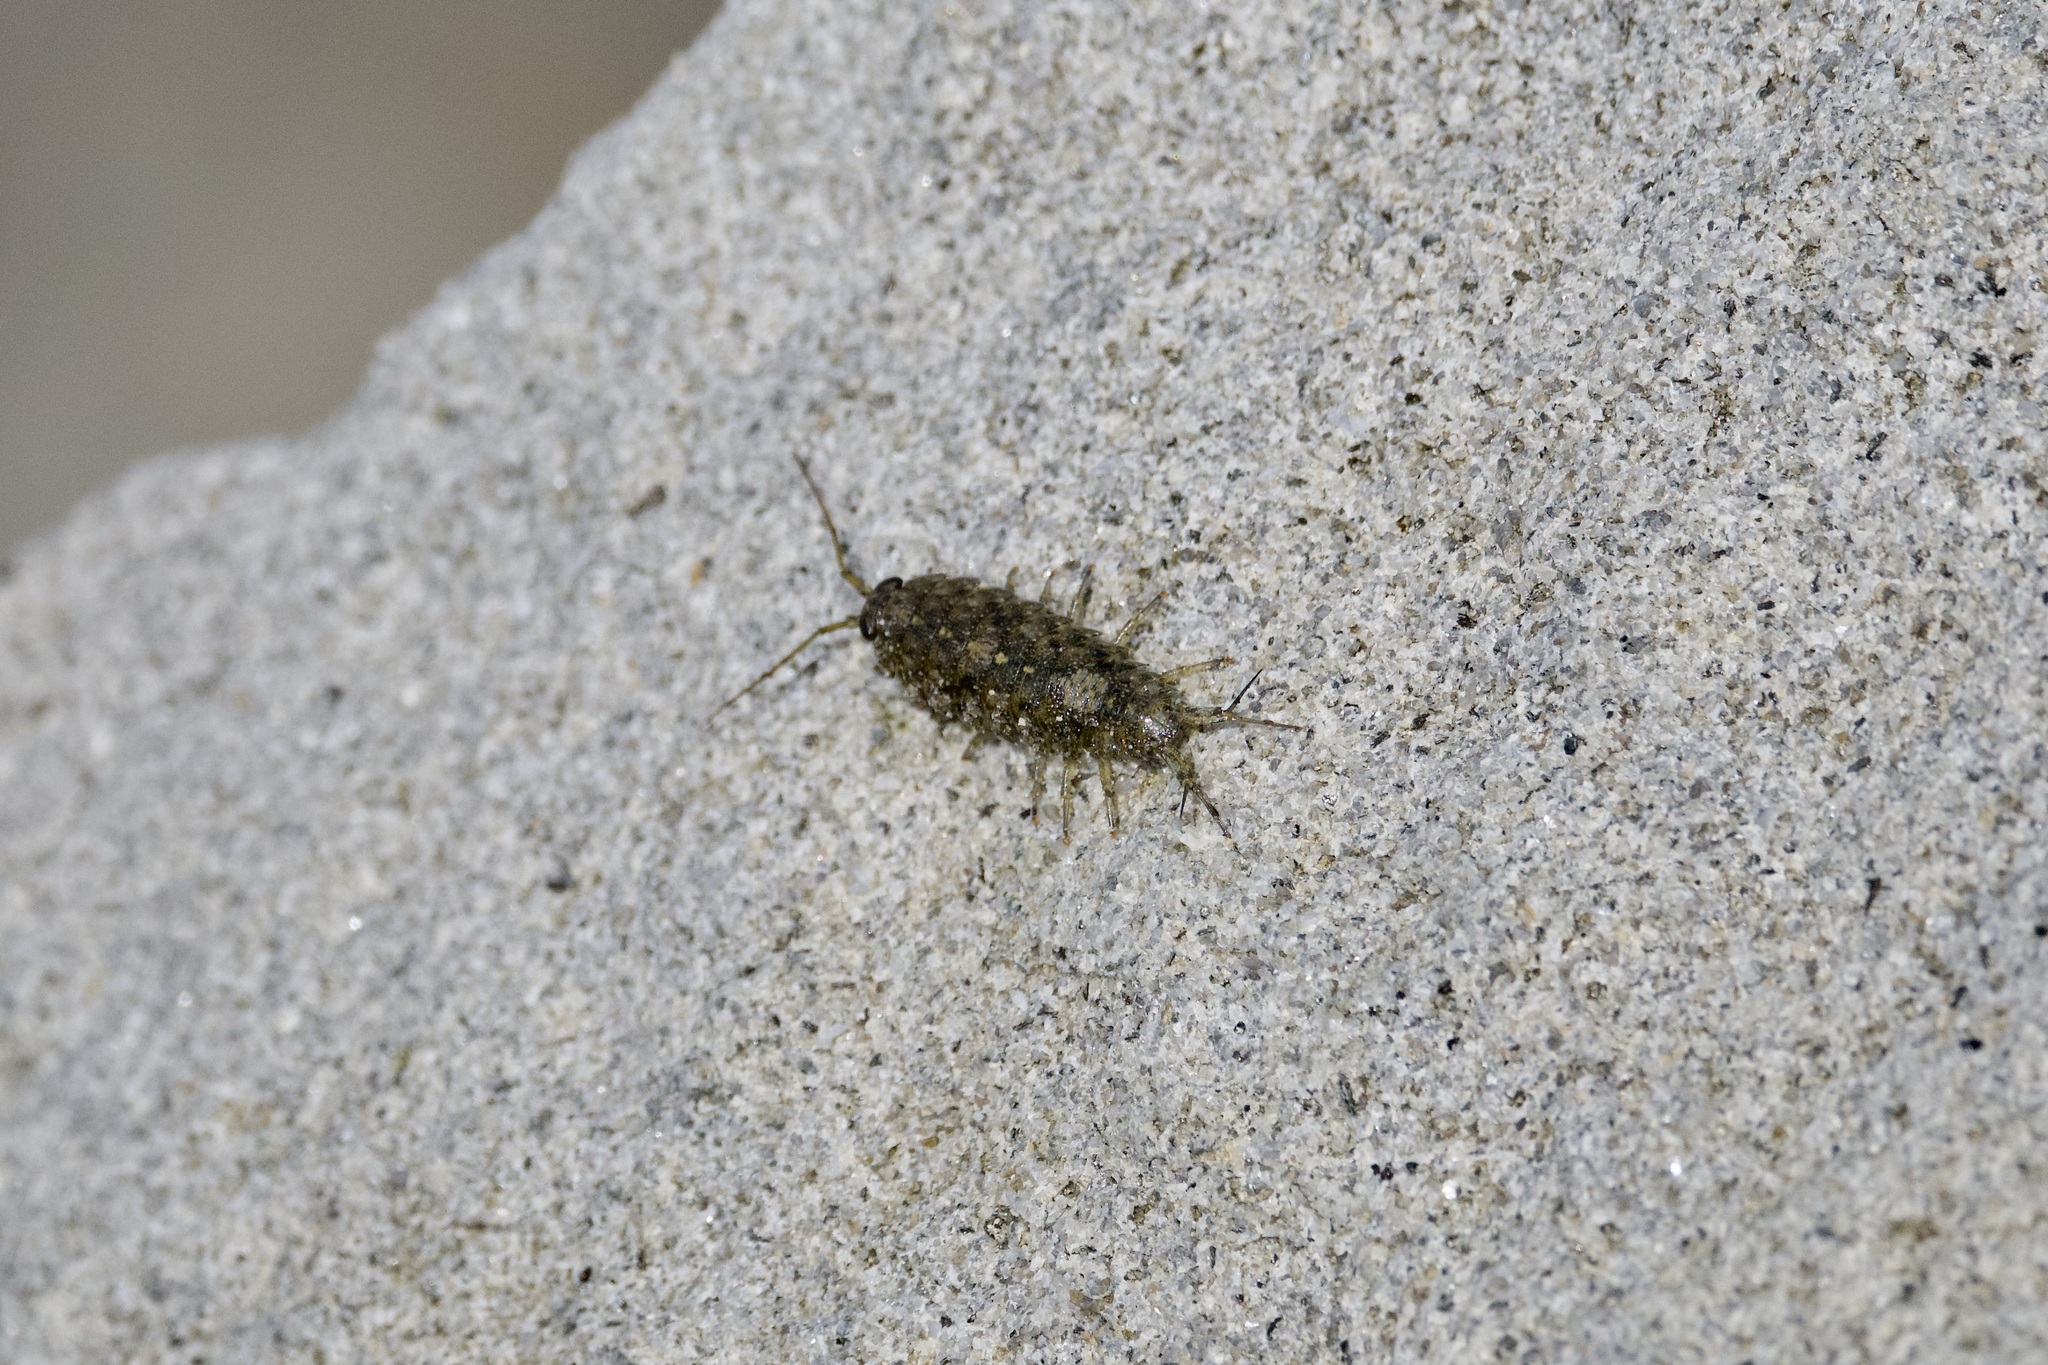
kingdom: Animalia
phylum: Arthropoda
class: Malacostraca
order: Isopoda
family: Ligiidae
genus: Ligia
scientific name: Ligia occidentalis
